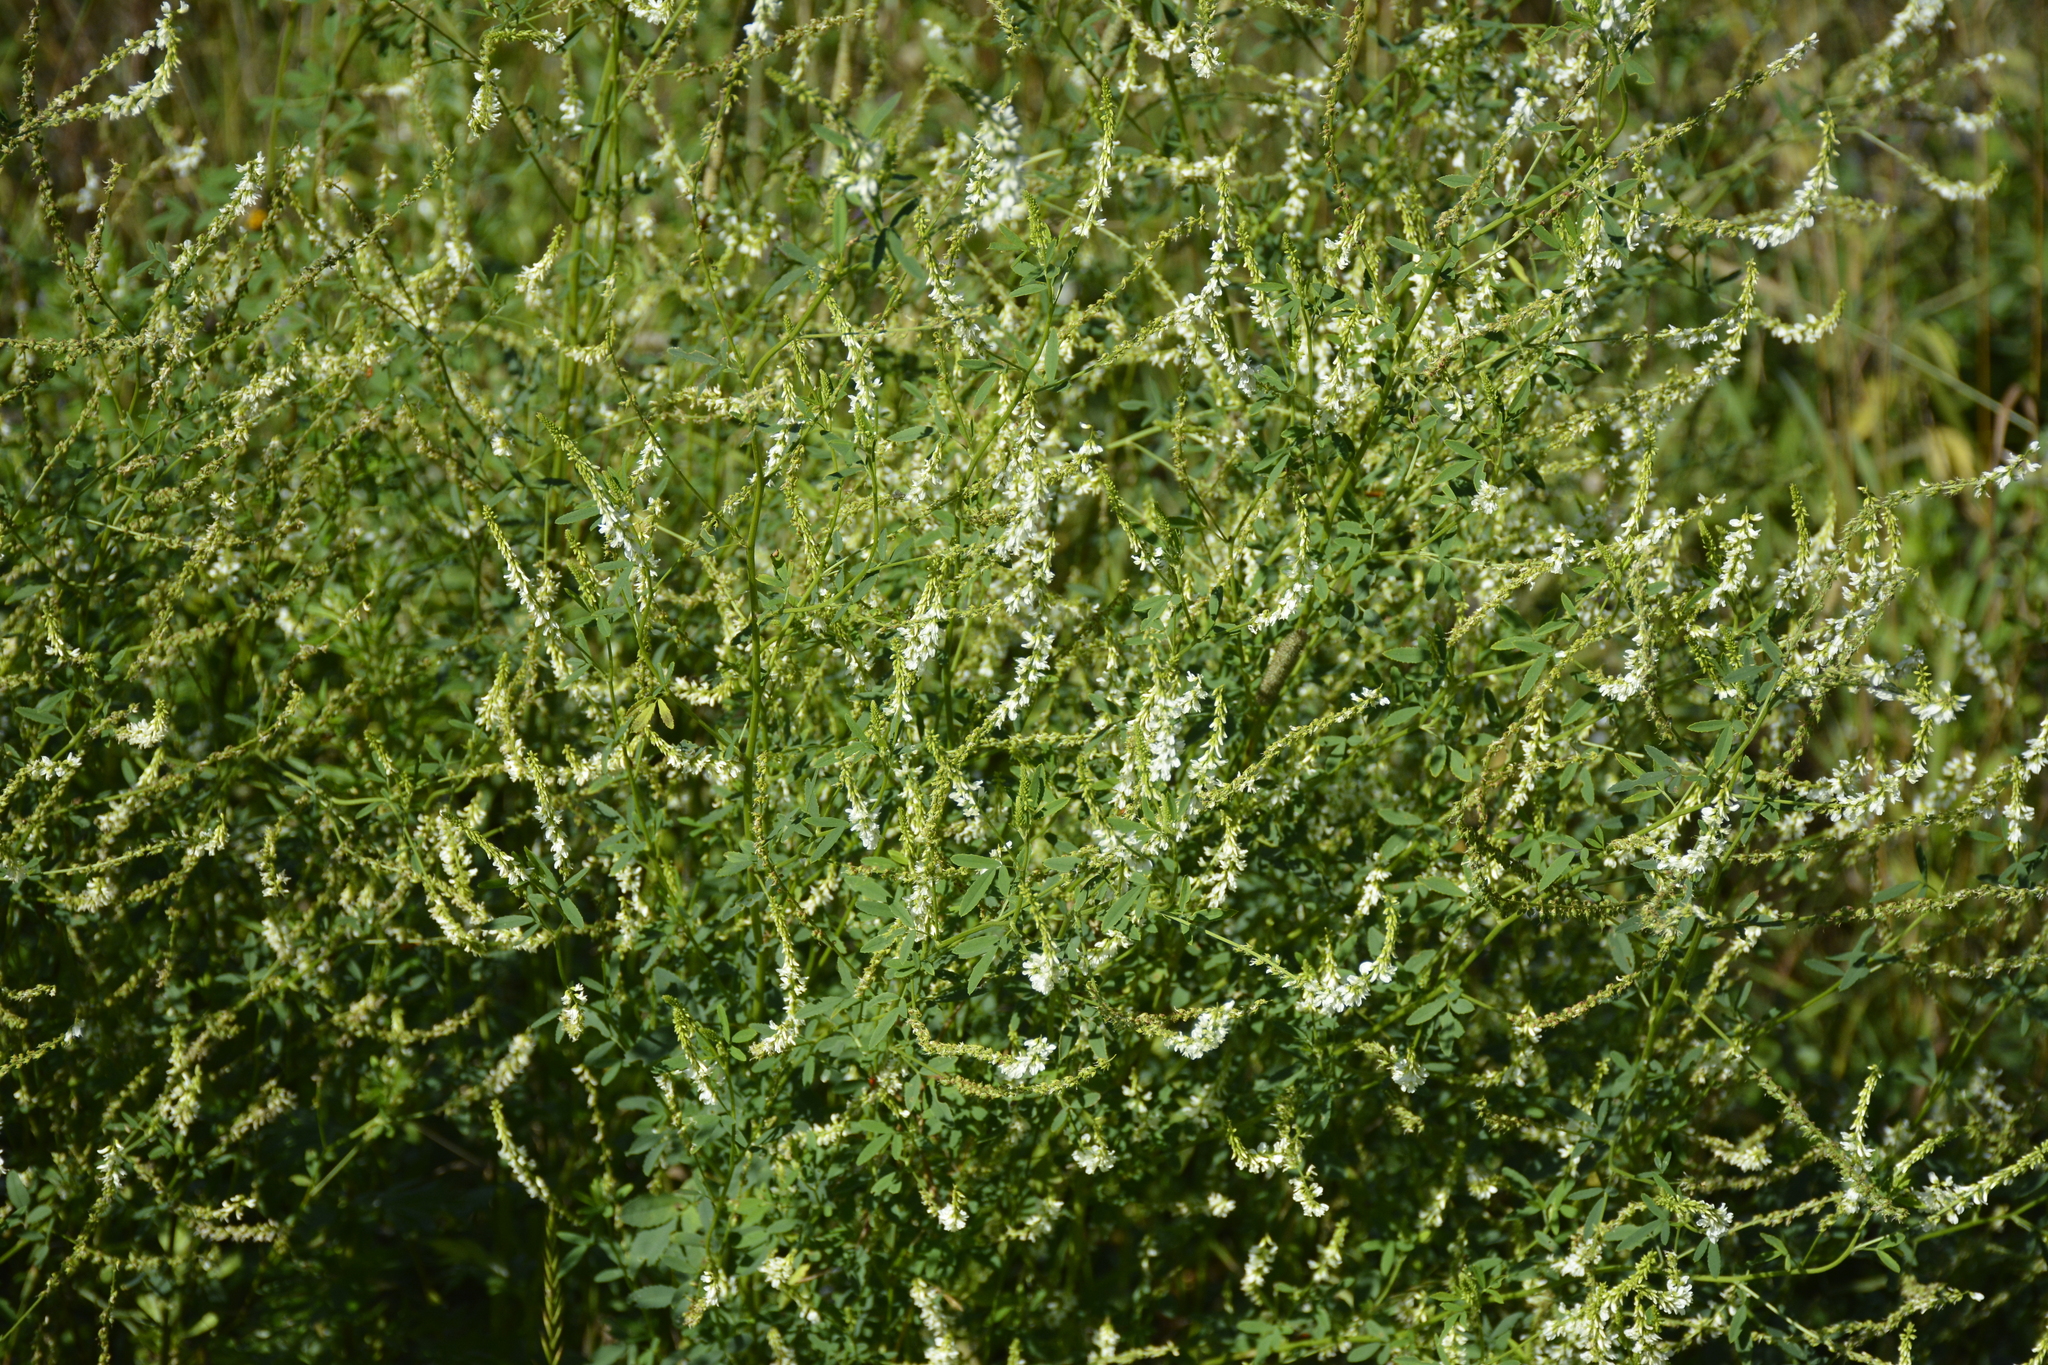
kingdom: Plantae
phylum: Tracheophyta
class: Magnoliopsida
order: Fabales
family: Fabaceae
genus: Melilotus
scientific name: Melilotus albus
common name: White melilot
